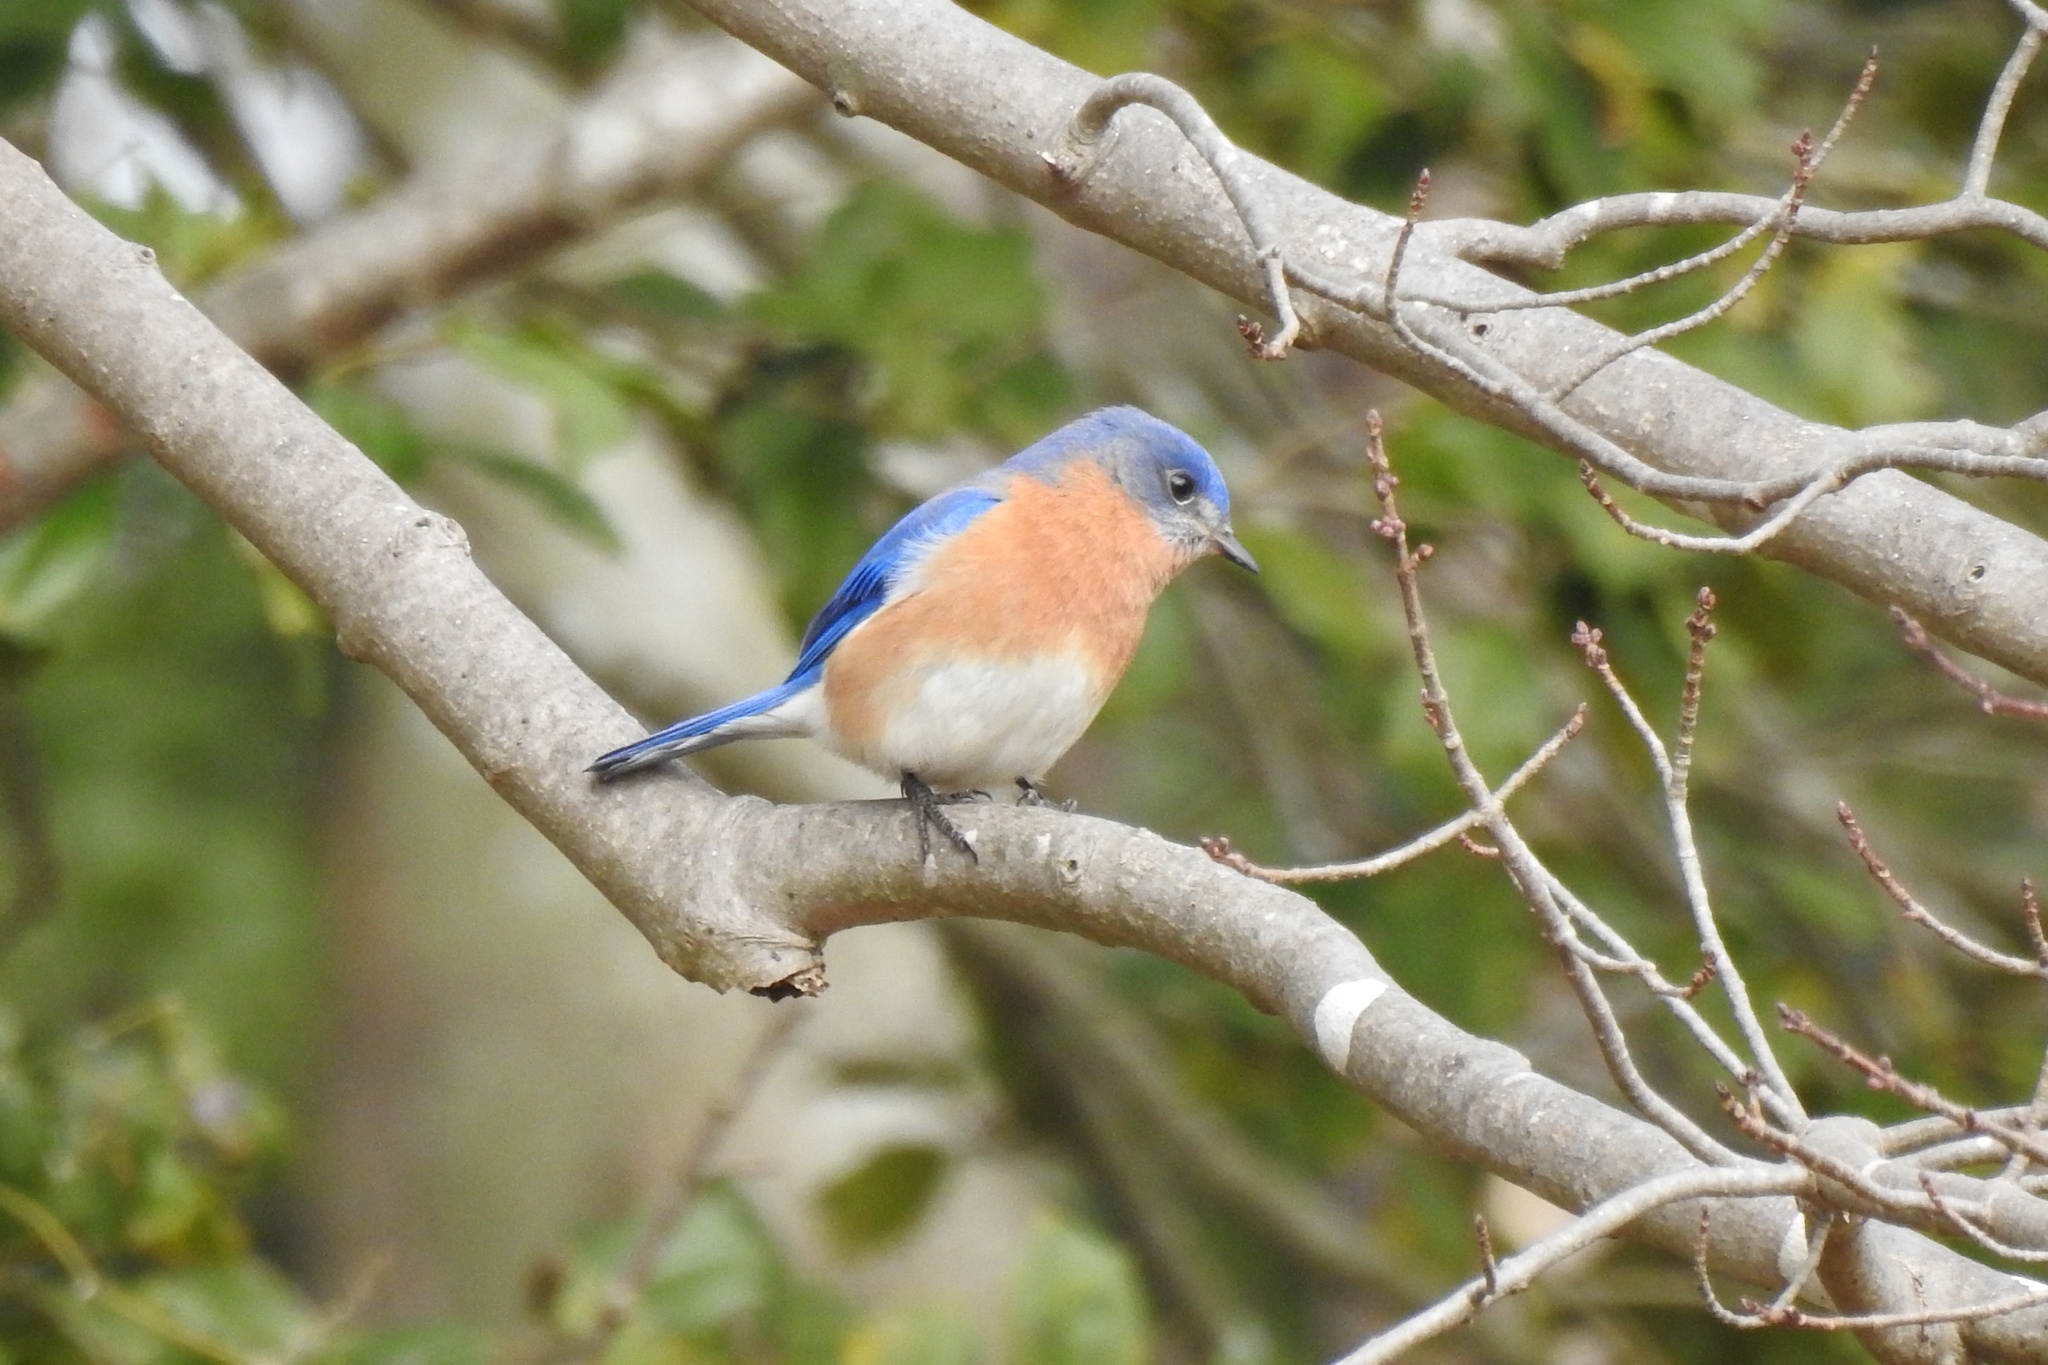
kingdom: Animalia
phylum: Chordata
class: Aves
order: Passeriformes
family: Turdidae
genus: Sialia
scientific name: Sialia sialis
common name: Eastern bluebird
